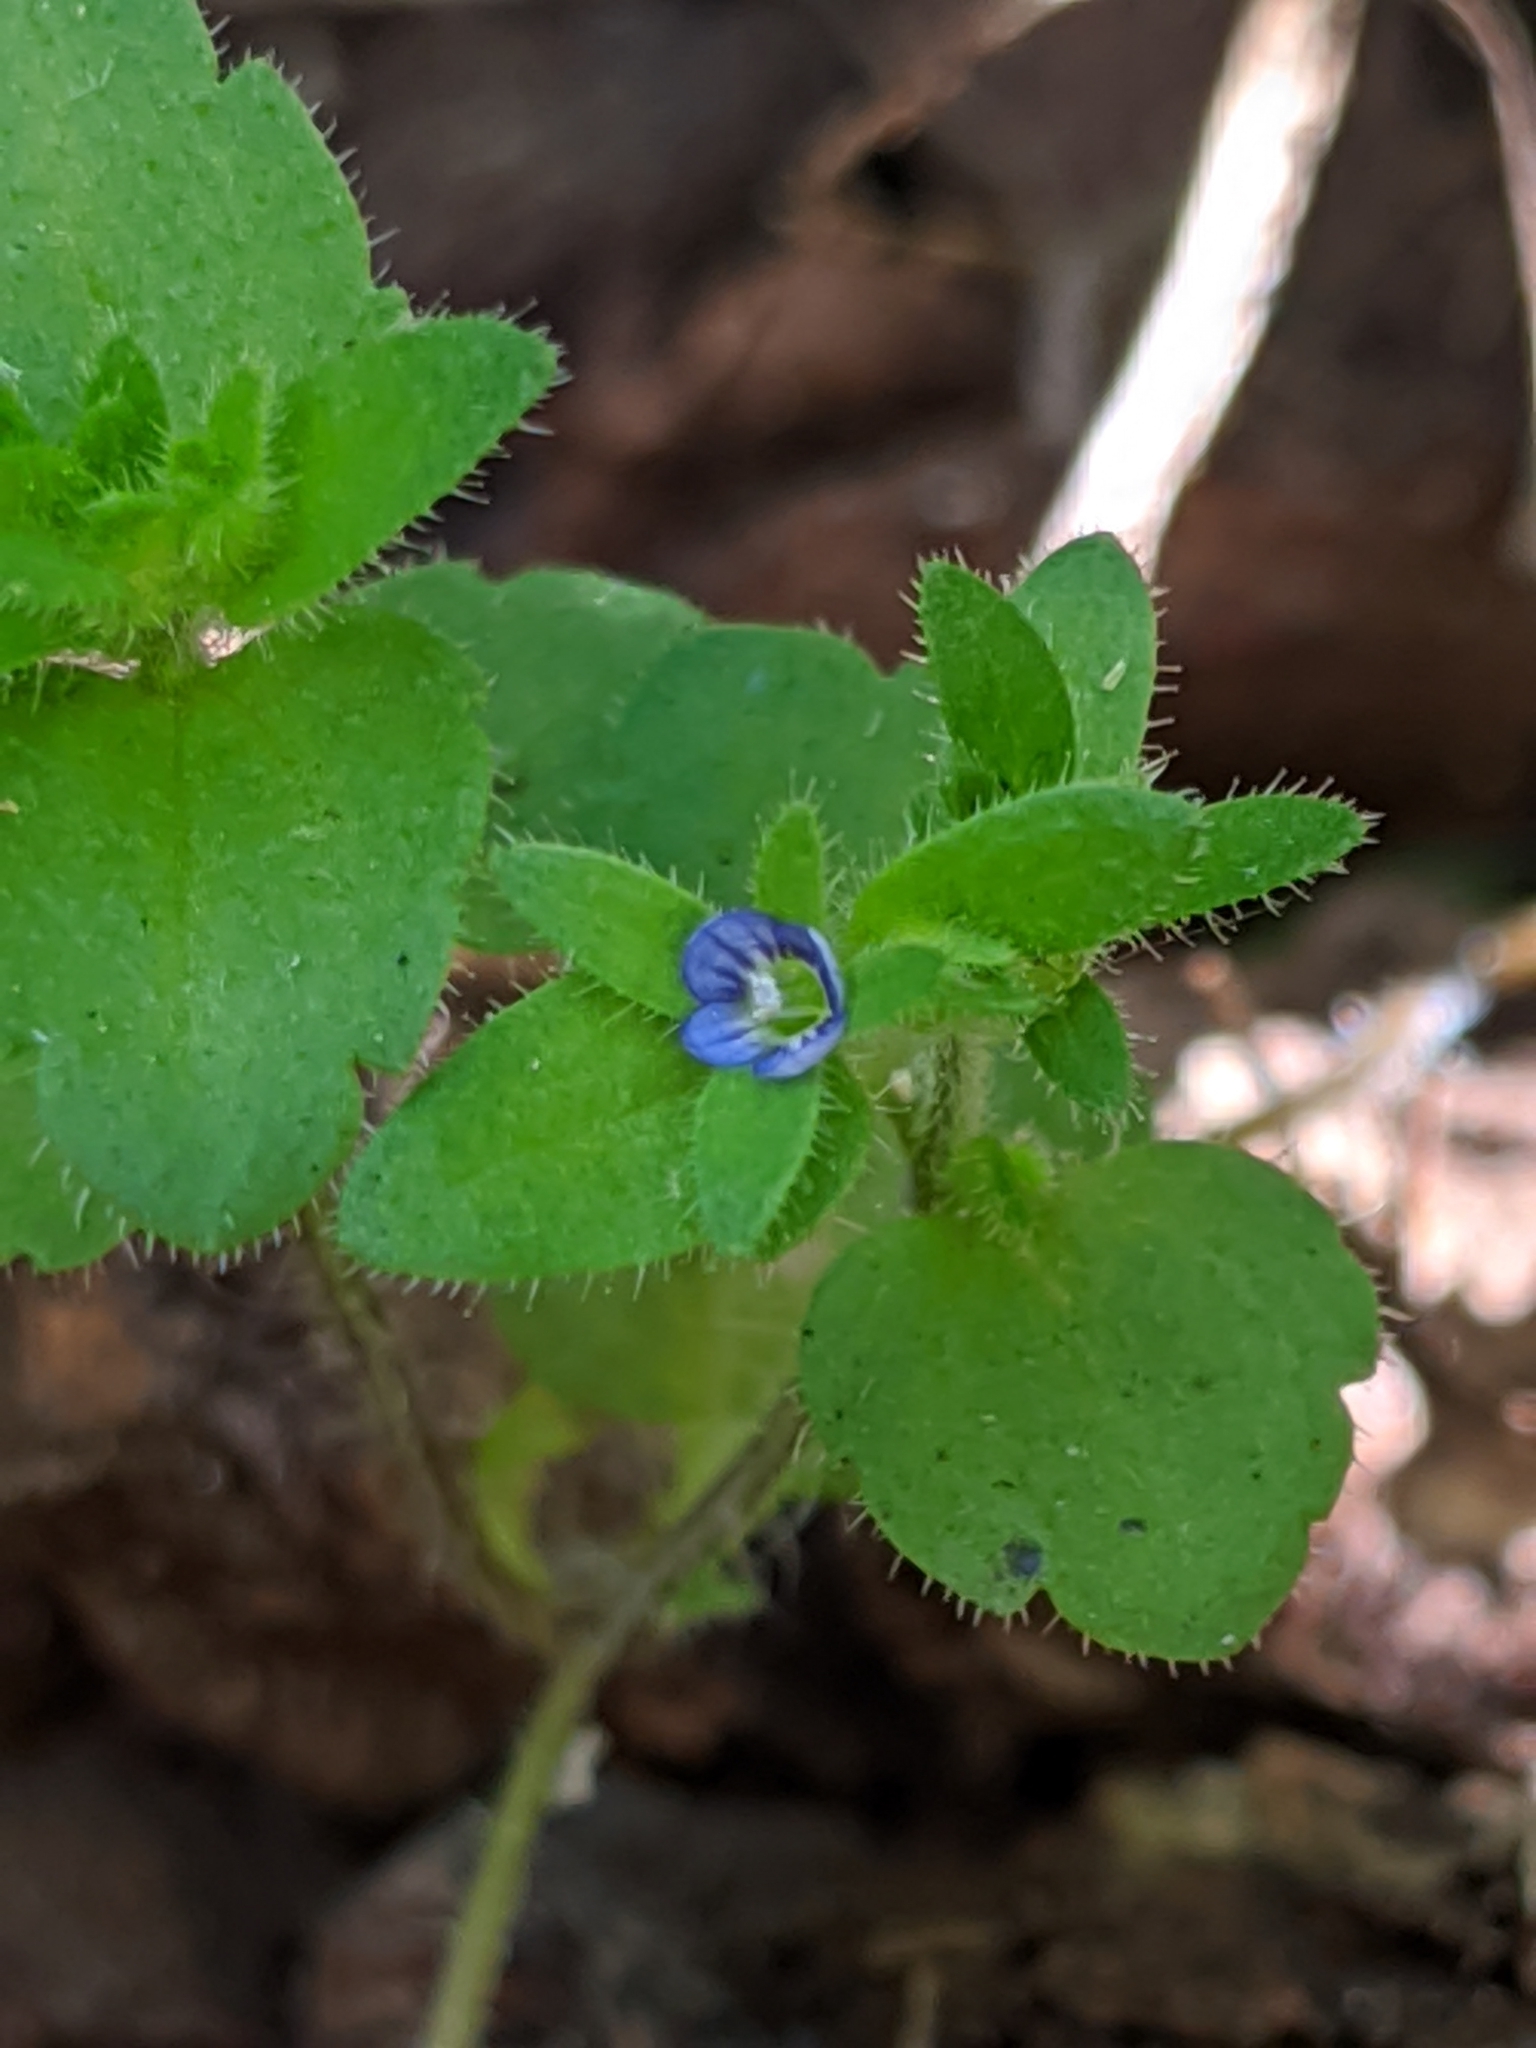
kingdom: Plantae
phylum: Tracheophyta
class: Magnoliopsida
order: Lamiales
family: Plantaginaceae
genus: Veronica
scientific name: Veronica arvensis
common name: Corn speedwell
